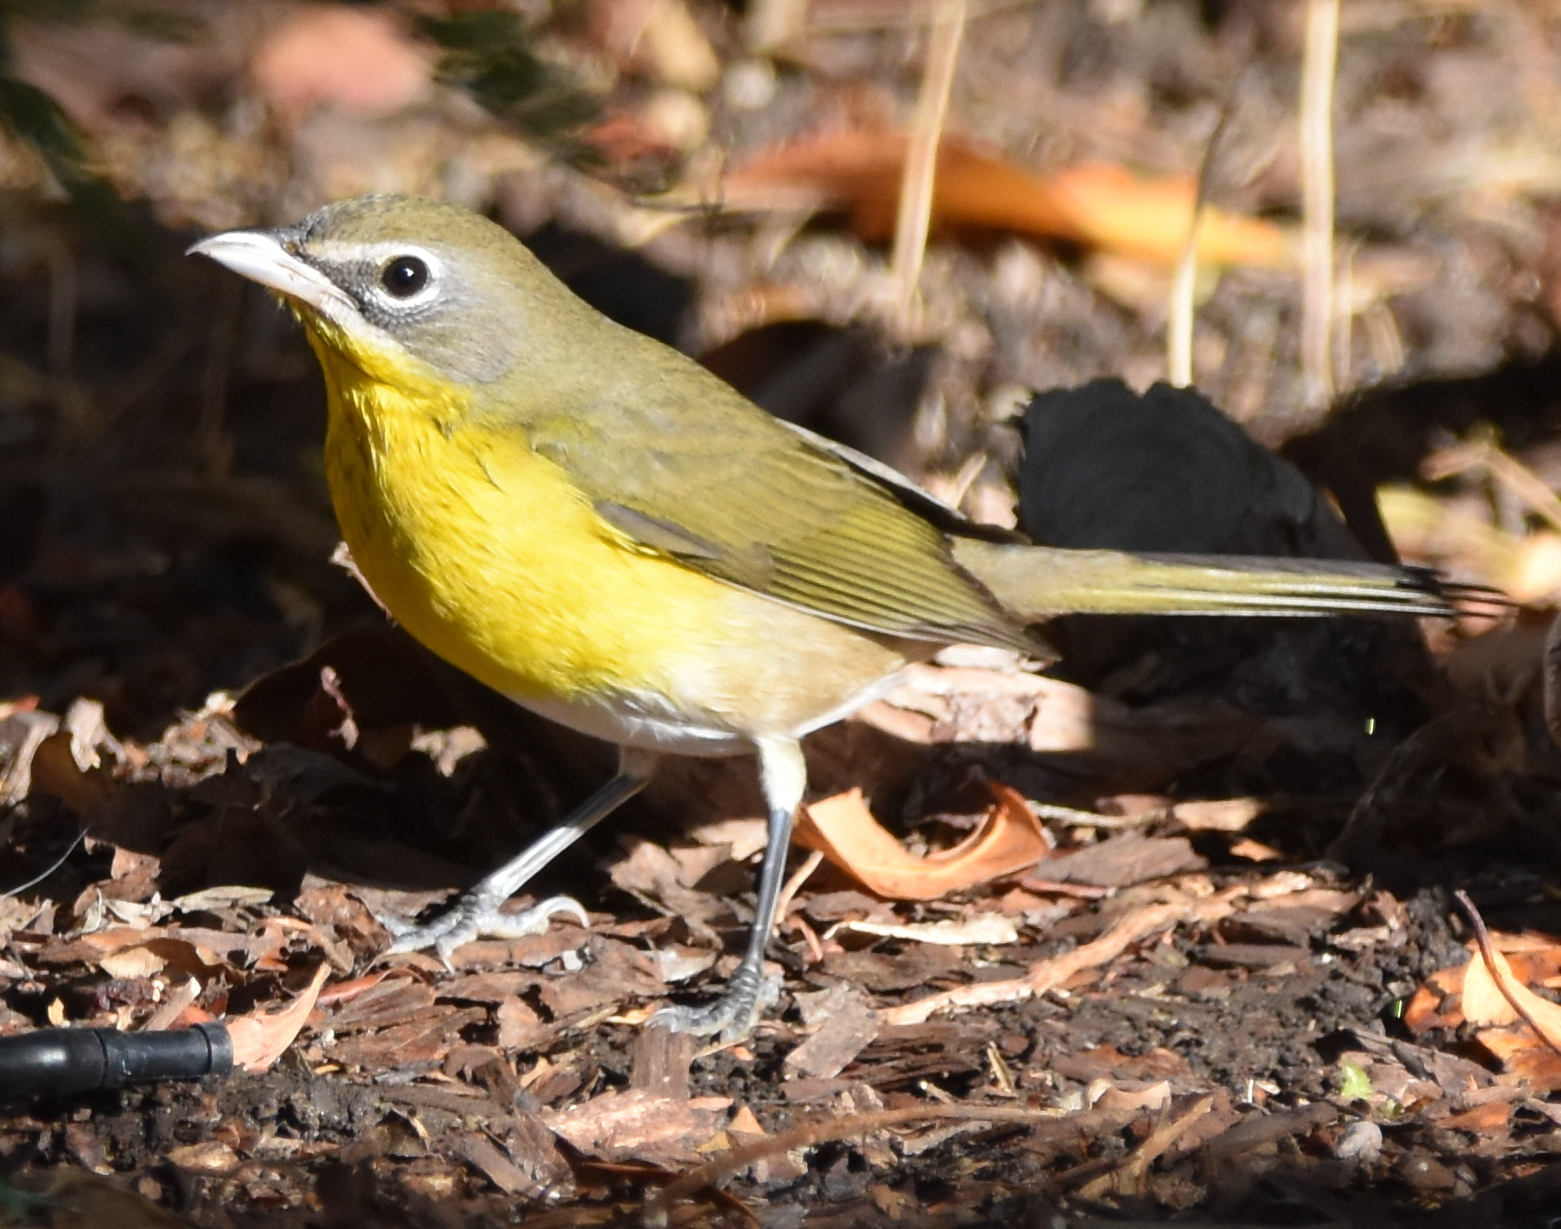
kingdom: Animalia
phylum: Chordata
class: Aves
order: Passeriformes
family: Parulidae
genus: Icteria
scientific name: Icteria virens
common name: Yellow-breasted chat
